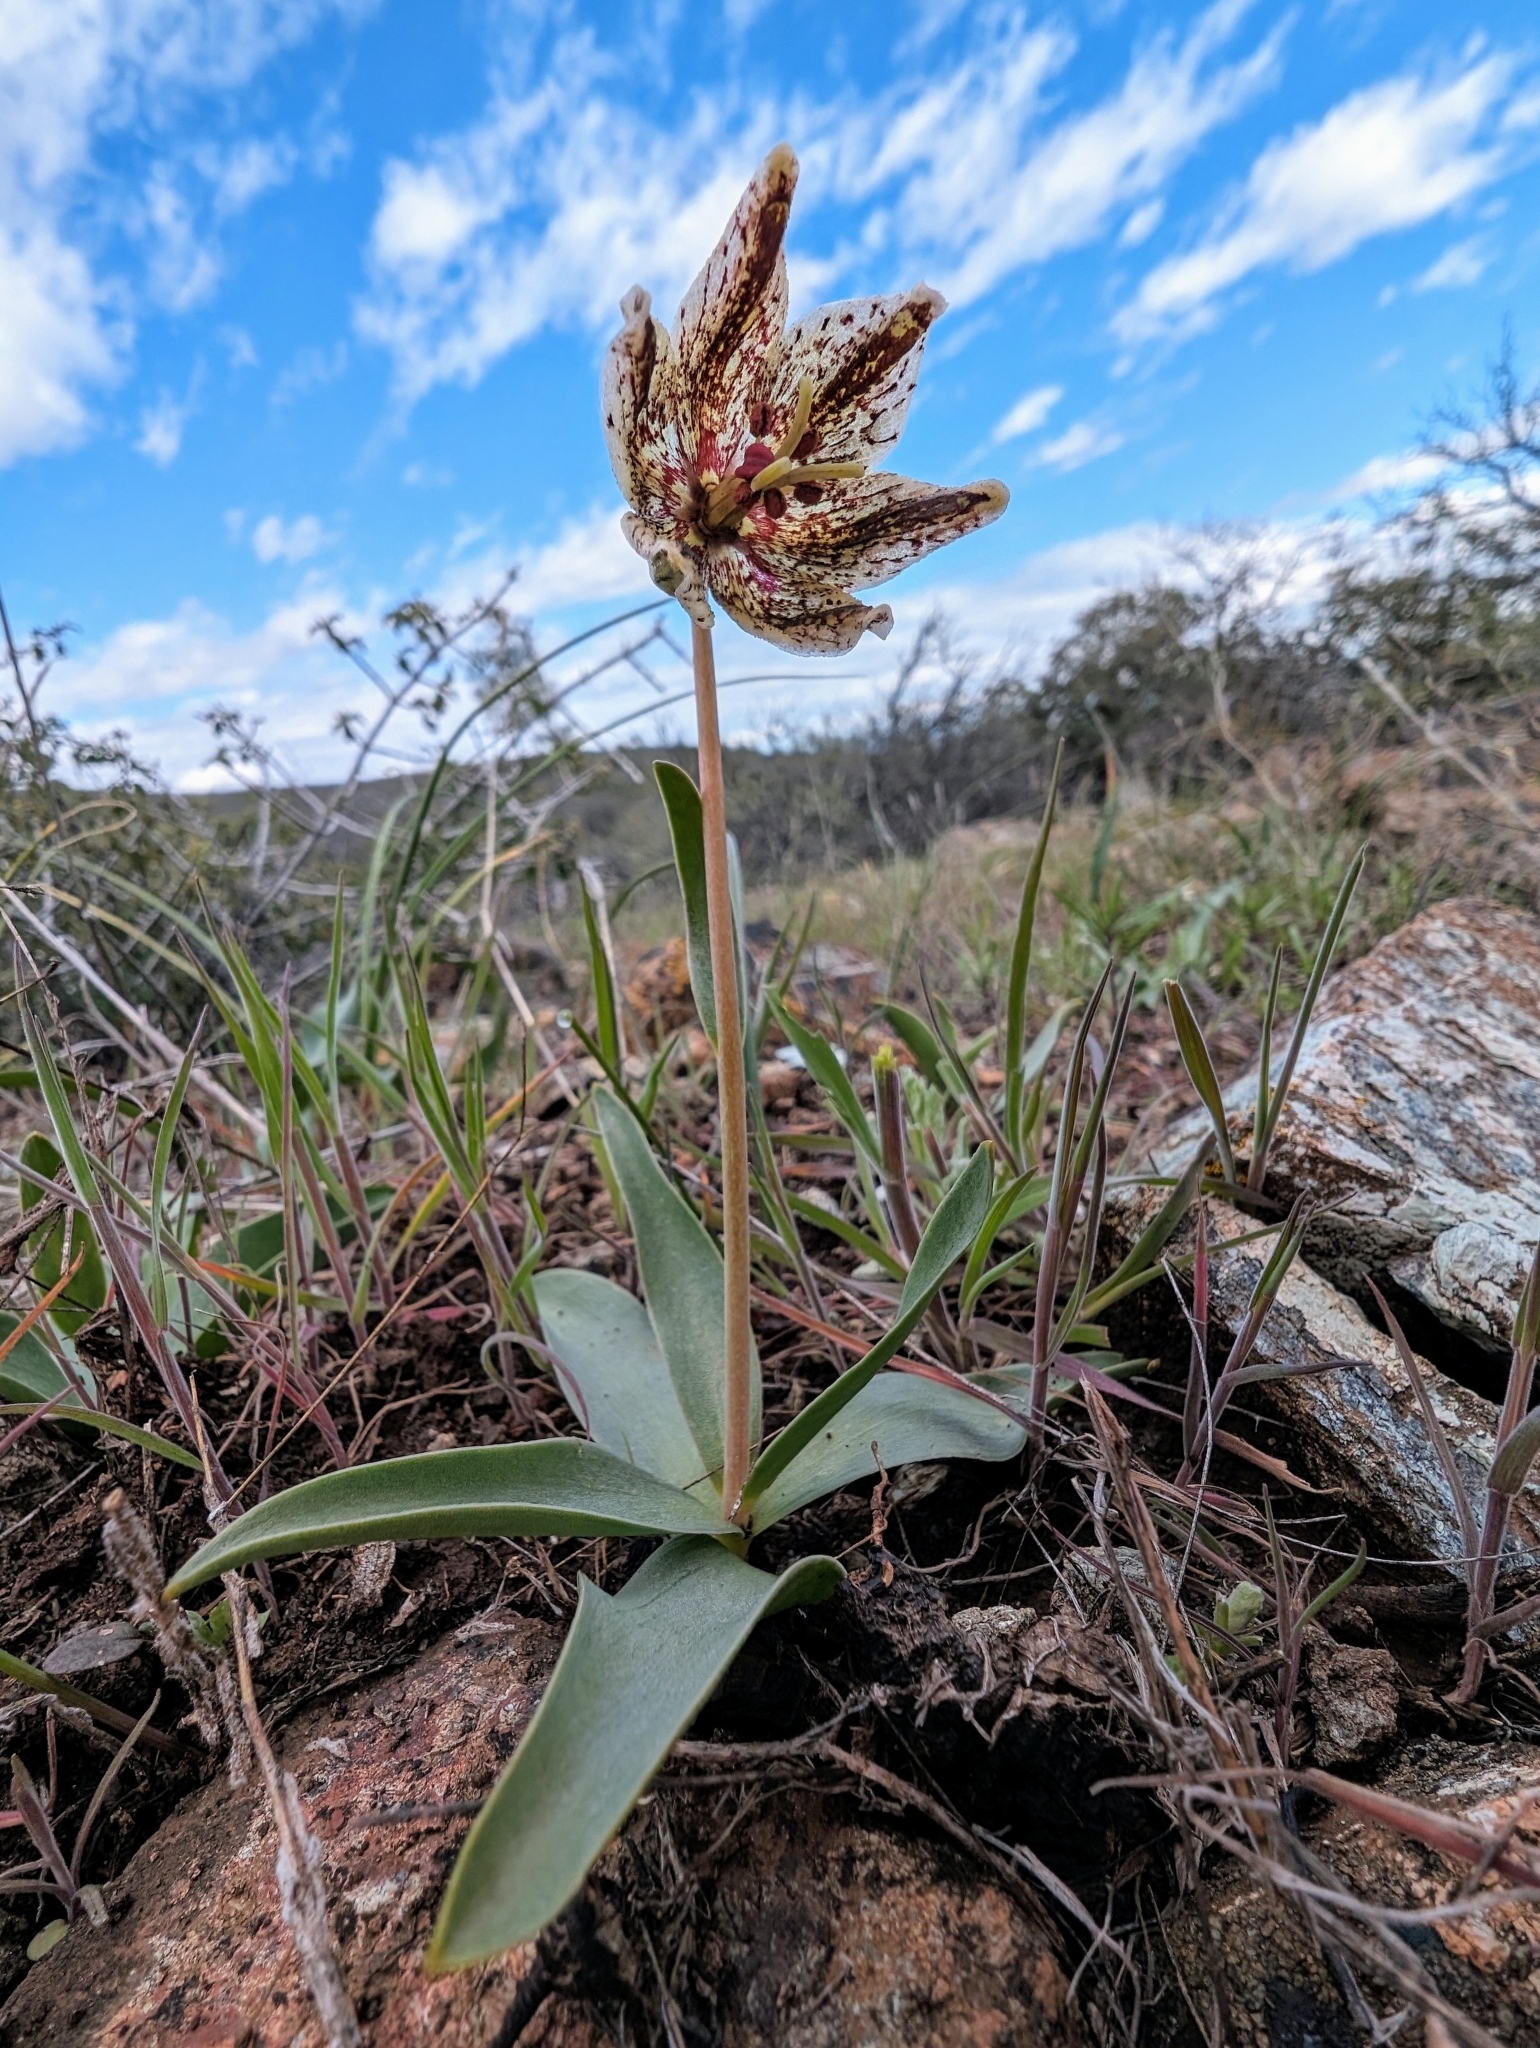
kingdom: Plantae
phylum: Tracheophyta
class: Liliopsida
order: Liliales
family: Liliaceae
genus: Fritillaria
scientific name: Fritillaria purdyi
